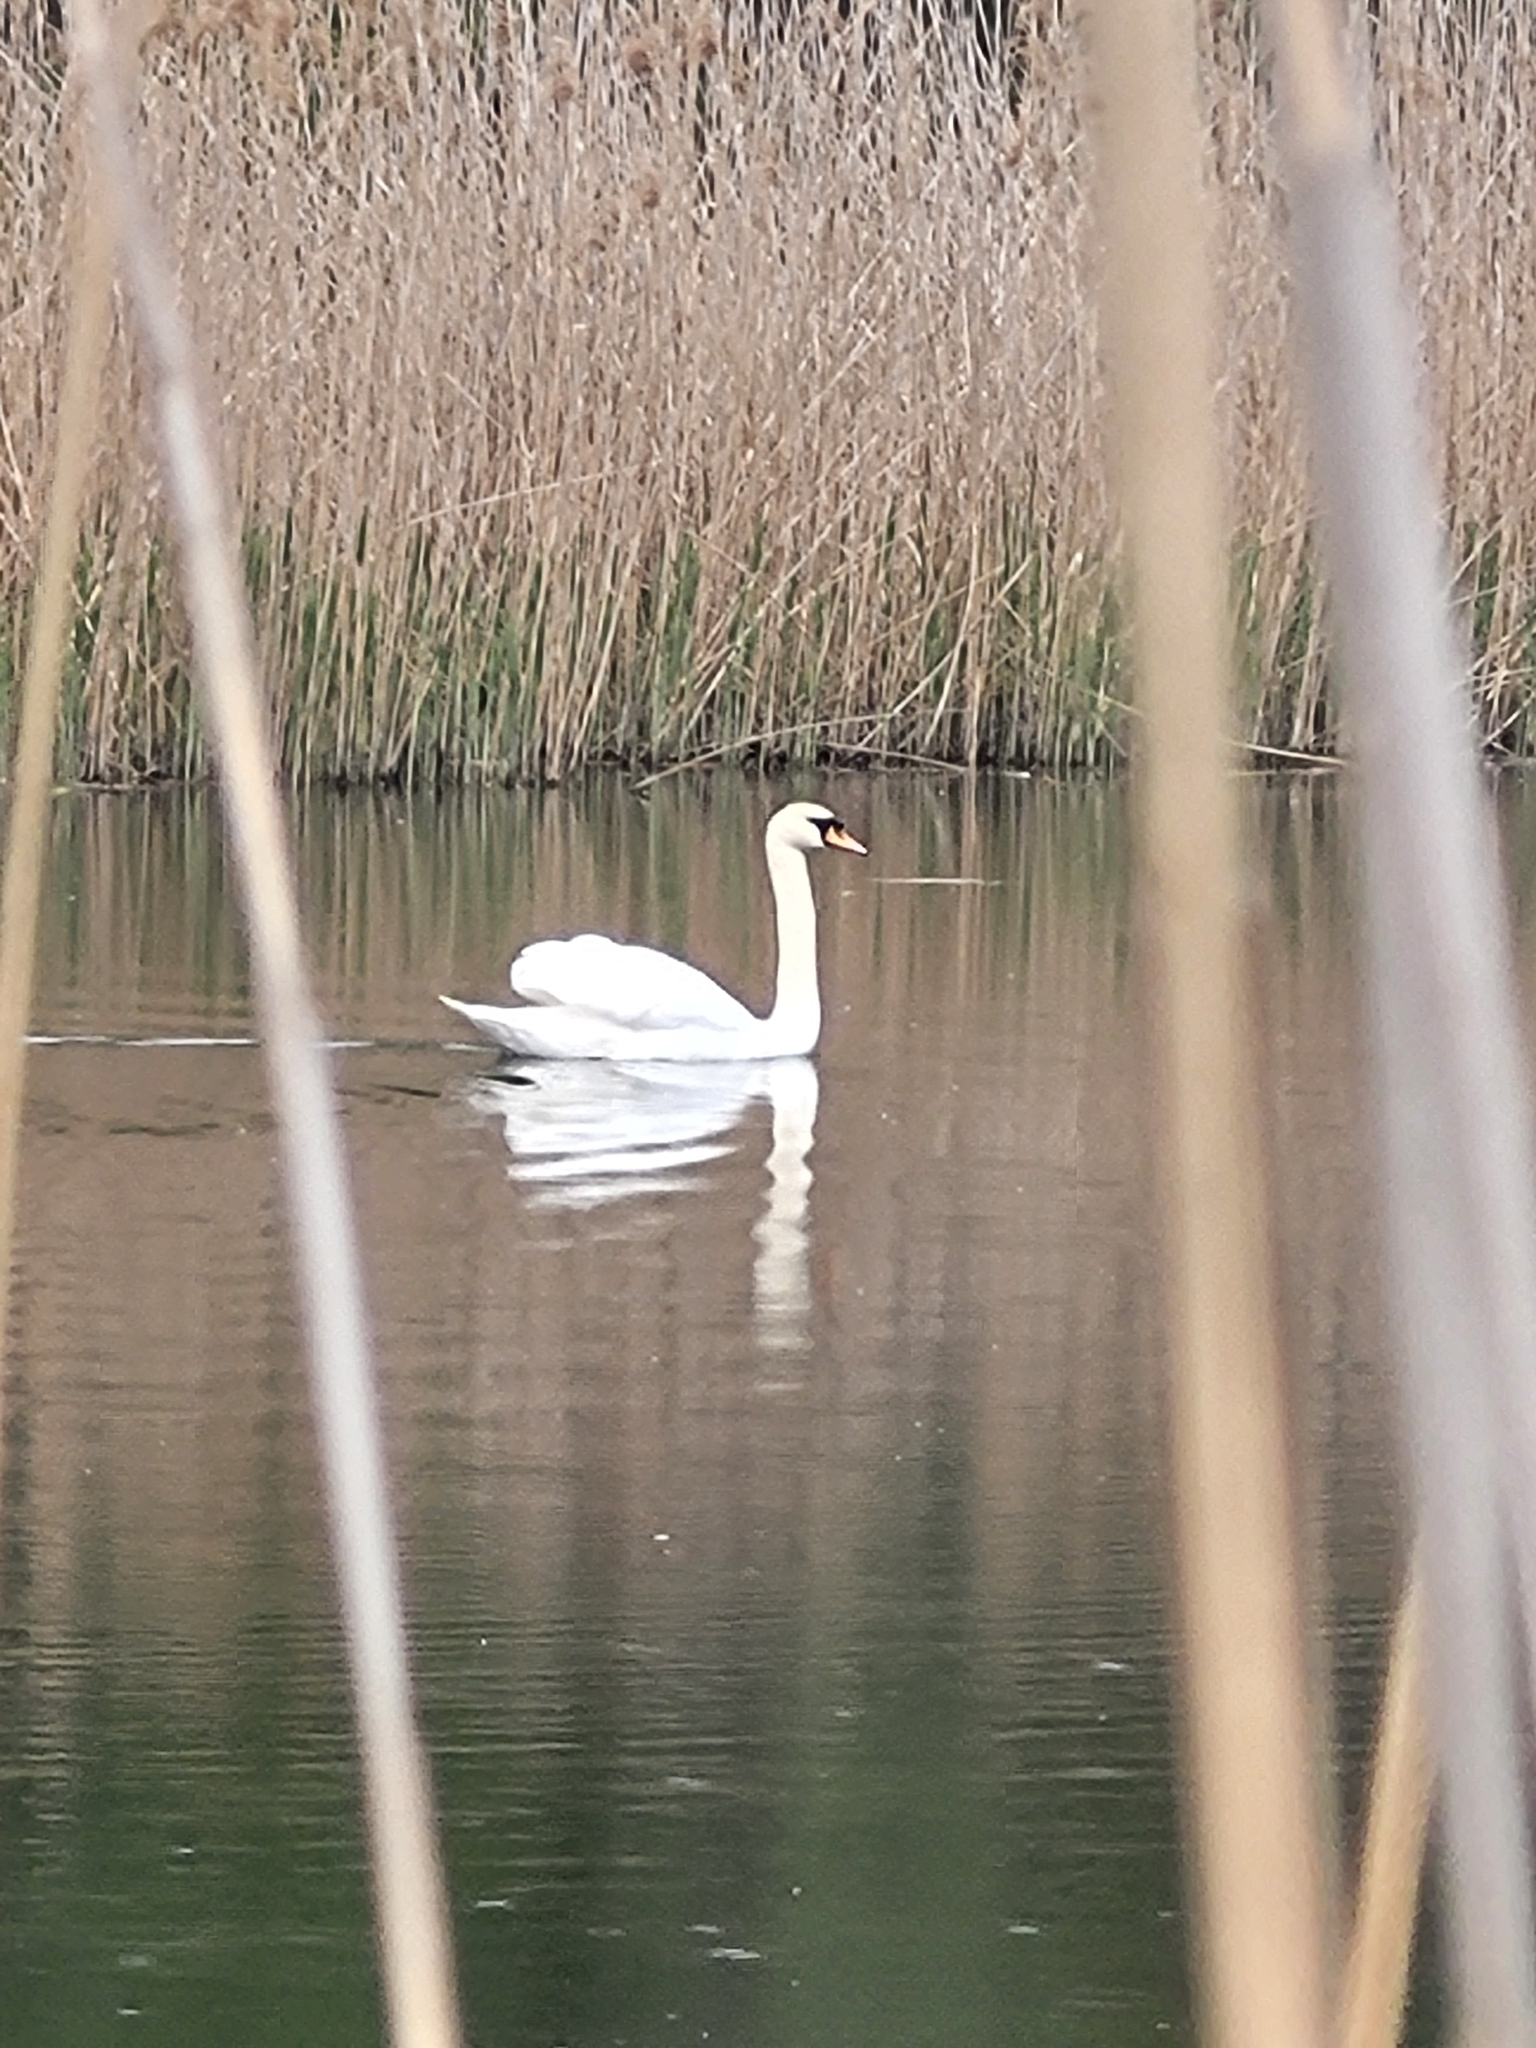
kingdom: Animalia
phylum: Chordata
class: Aves
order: Anseriformes
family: Anatidae
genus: Cygnus
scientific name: Cygnus olor
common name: Mute swan
